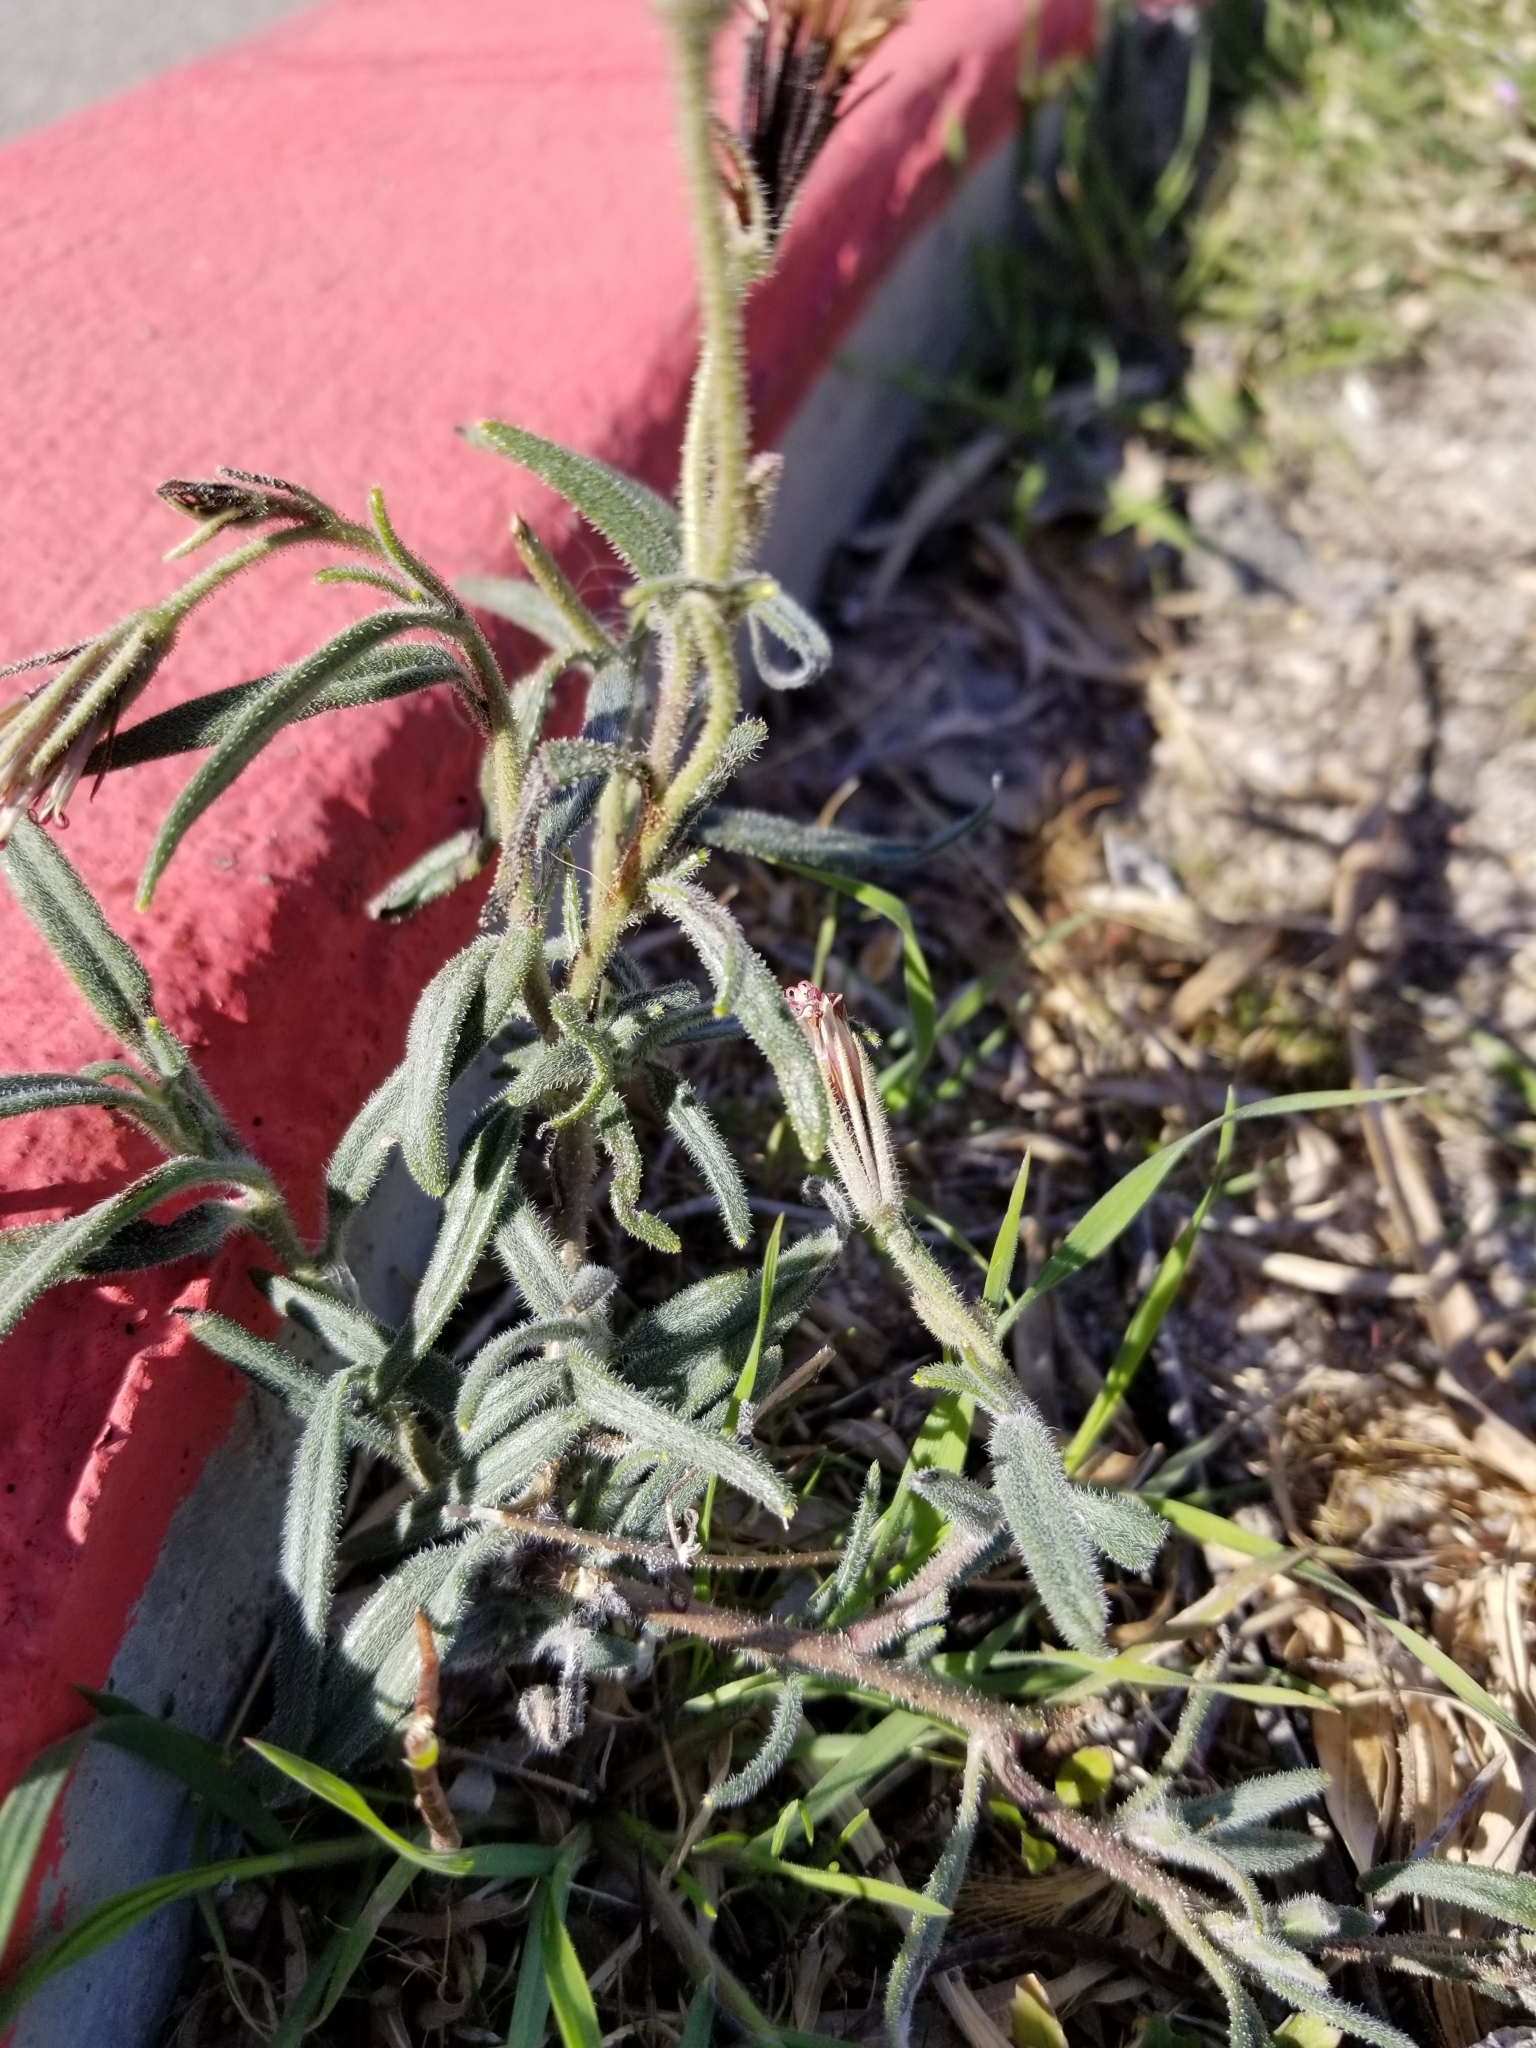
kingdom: Plantae
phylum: Tracheophyta
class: Magnoliopsida
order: Asterales
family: Asteraceae
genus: Palafoxia
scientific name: Palafoxia arida
